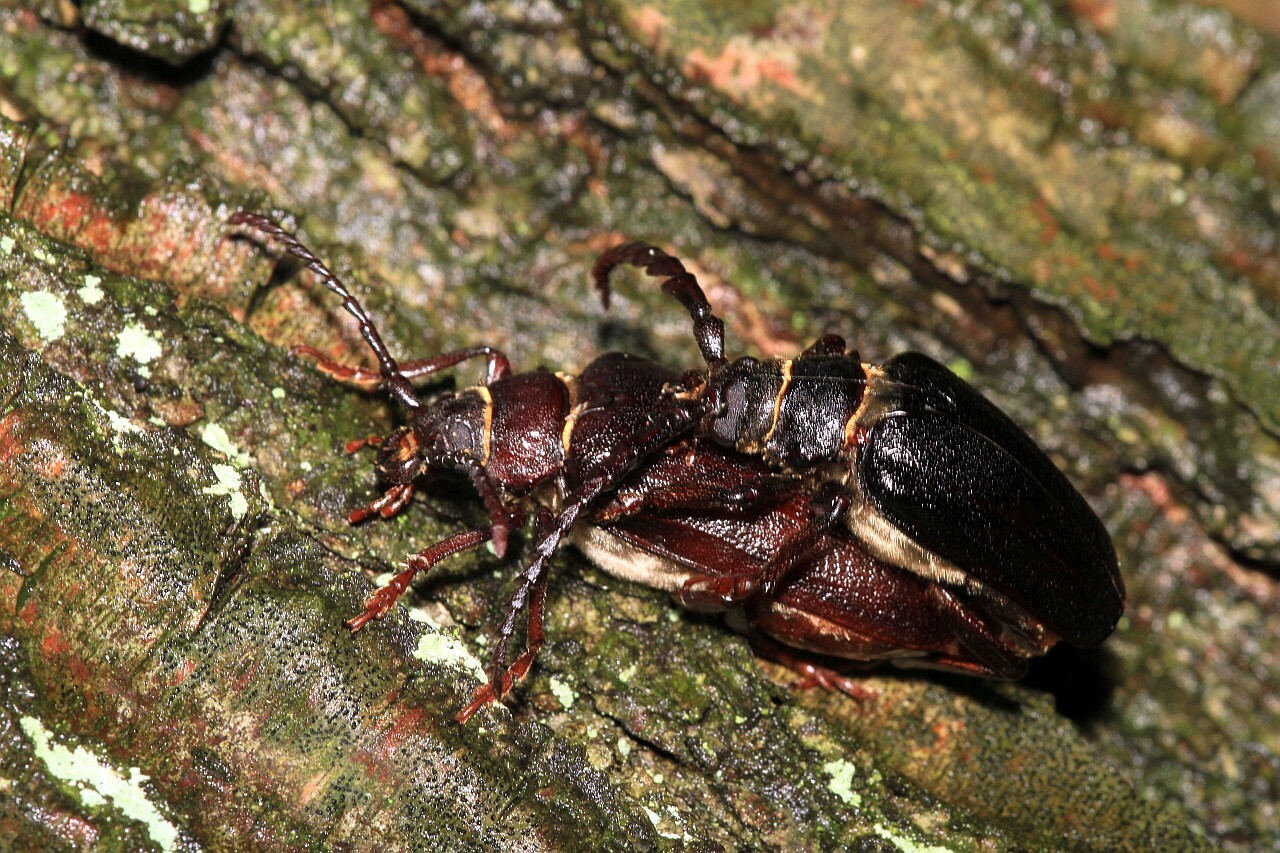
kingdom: Animalia
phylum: Arthropoda
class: Insecta
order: Coleoptera
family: Cerambycidae
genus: Prionus
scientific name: Prionus coriarius
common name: Tanner beetle
